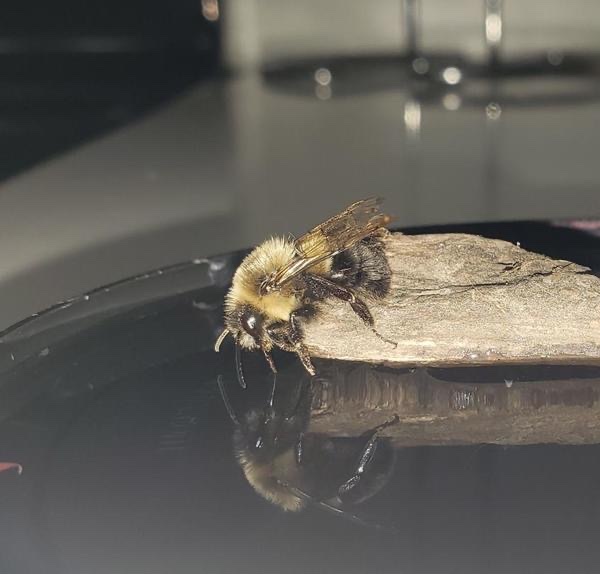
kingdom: Animalia
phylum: Arthropoda
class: Insecta
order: Hymenoptera
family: Apidae
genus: Bombus
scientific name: Bombus impatiens
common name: Common eastern bumble bee
